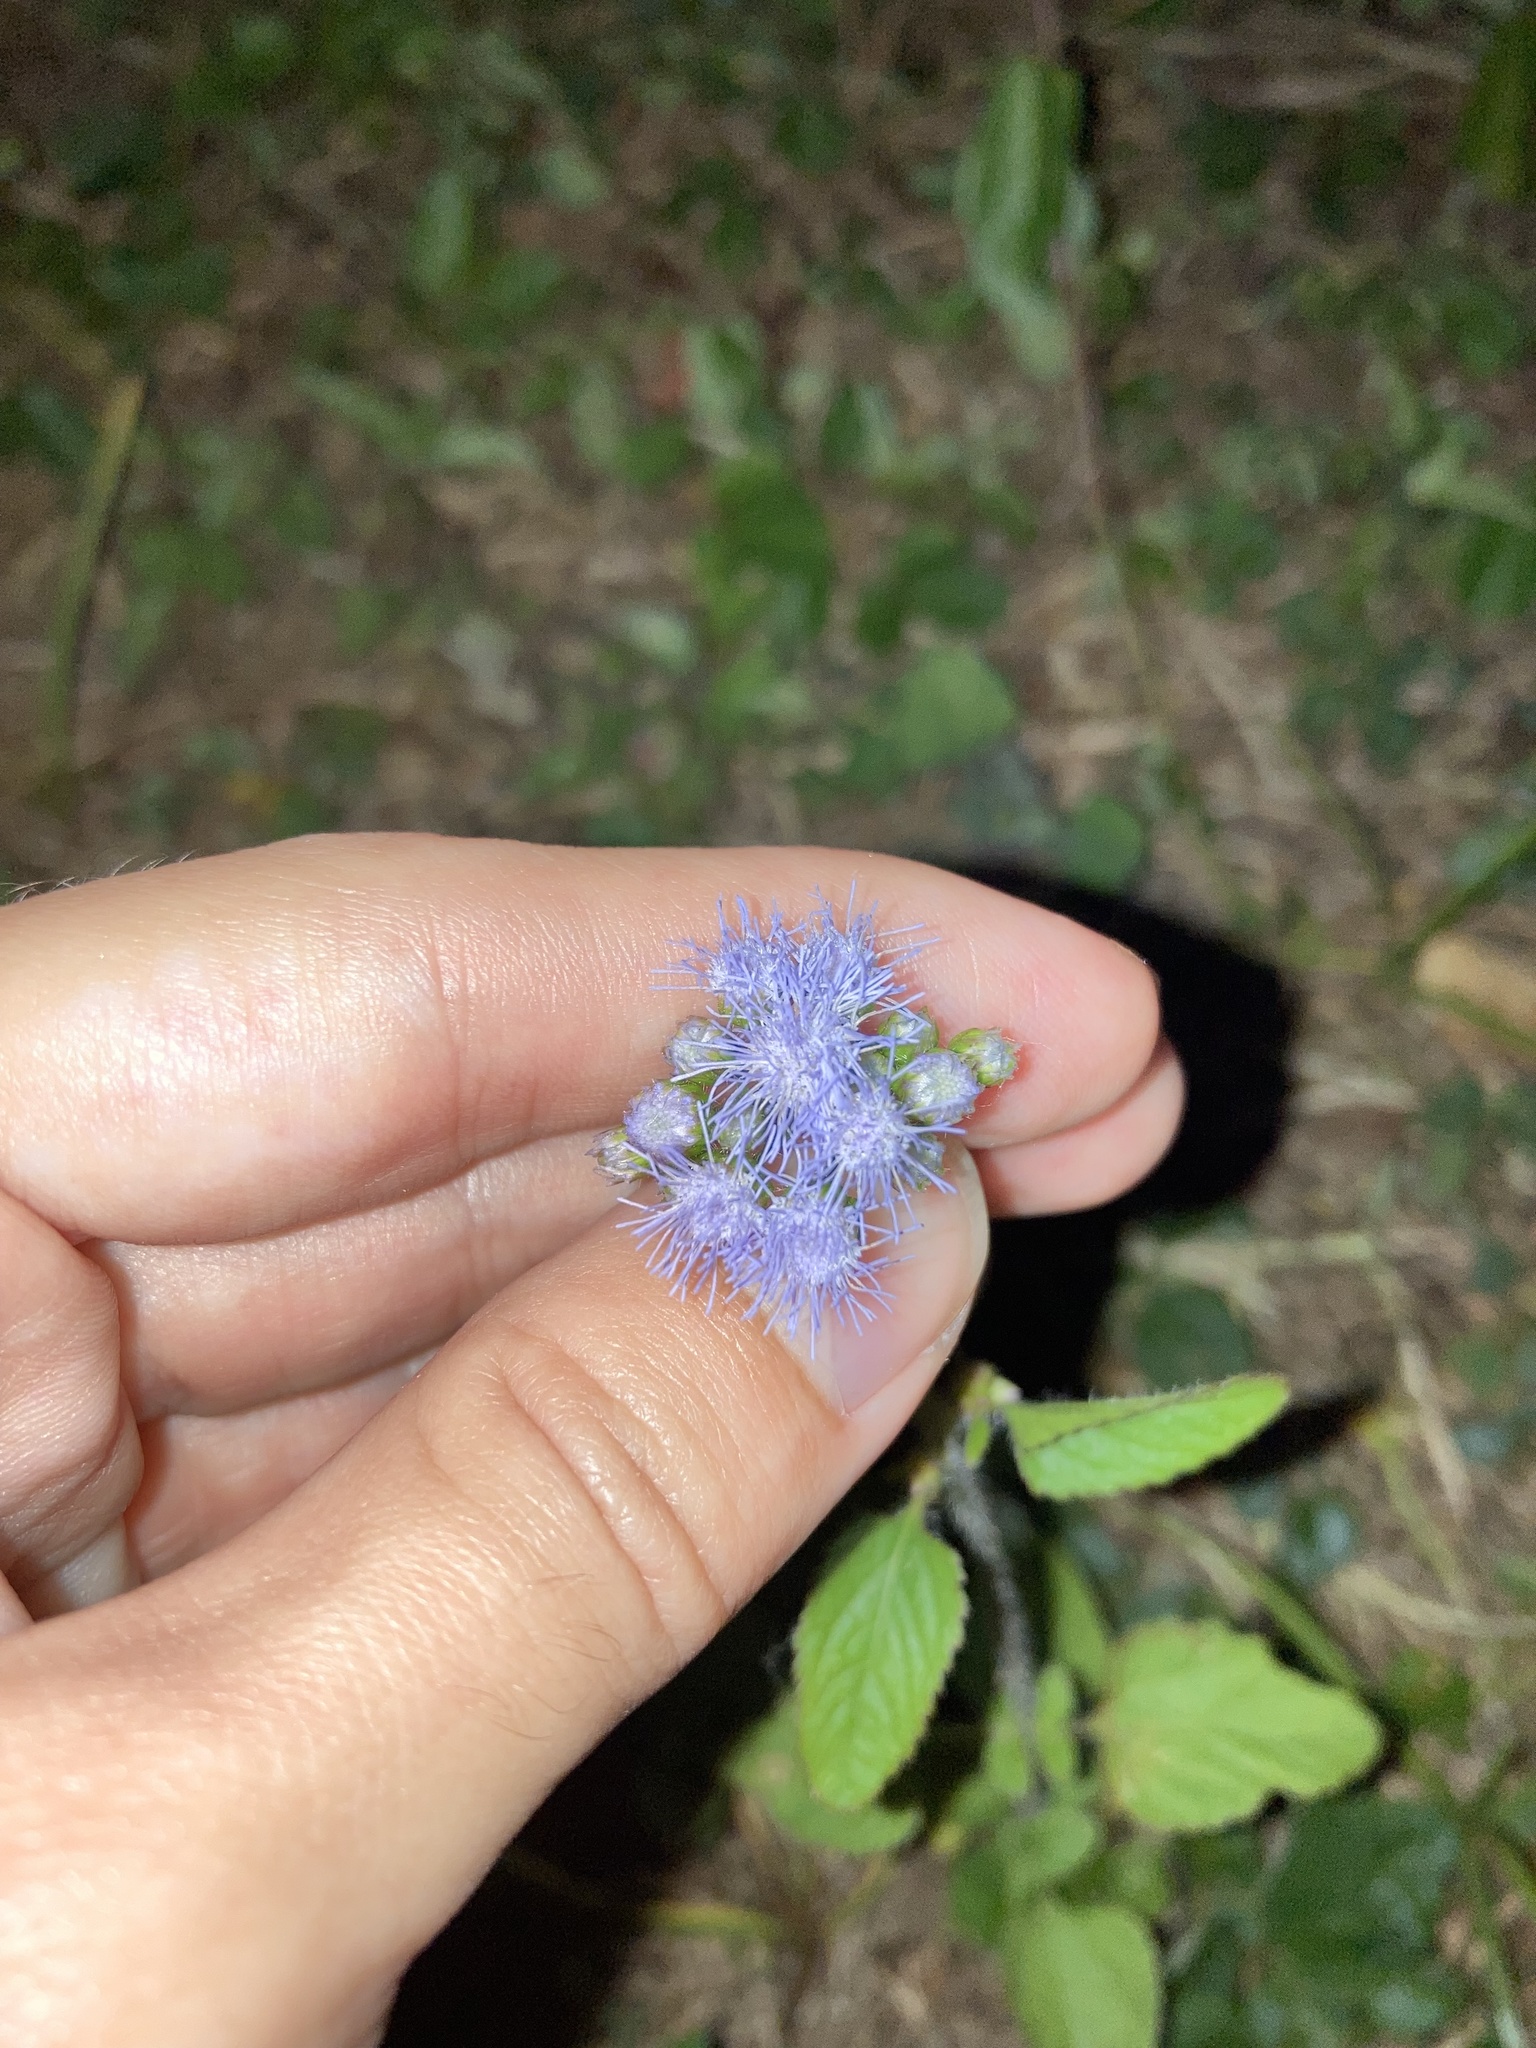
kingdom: Plantae
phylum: Tracheophyta
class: Magnoliopsida
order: Asterales
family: Asteraceae
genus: Ageratum
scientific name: Ageratum houstonianum
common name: Bluemink
